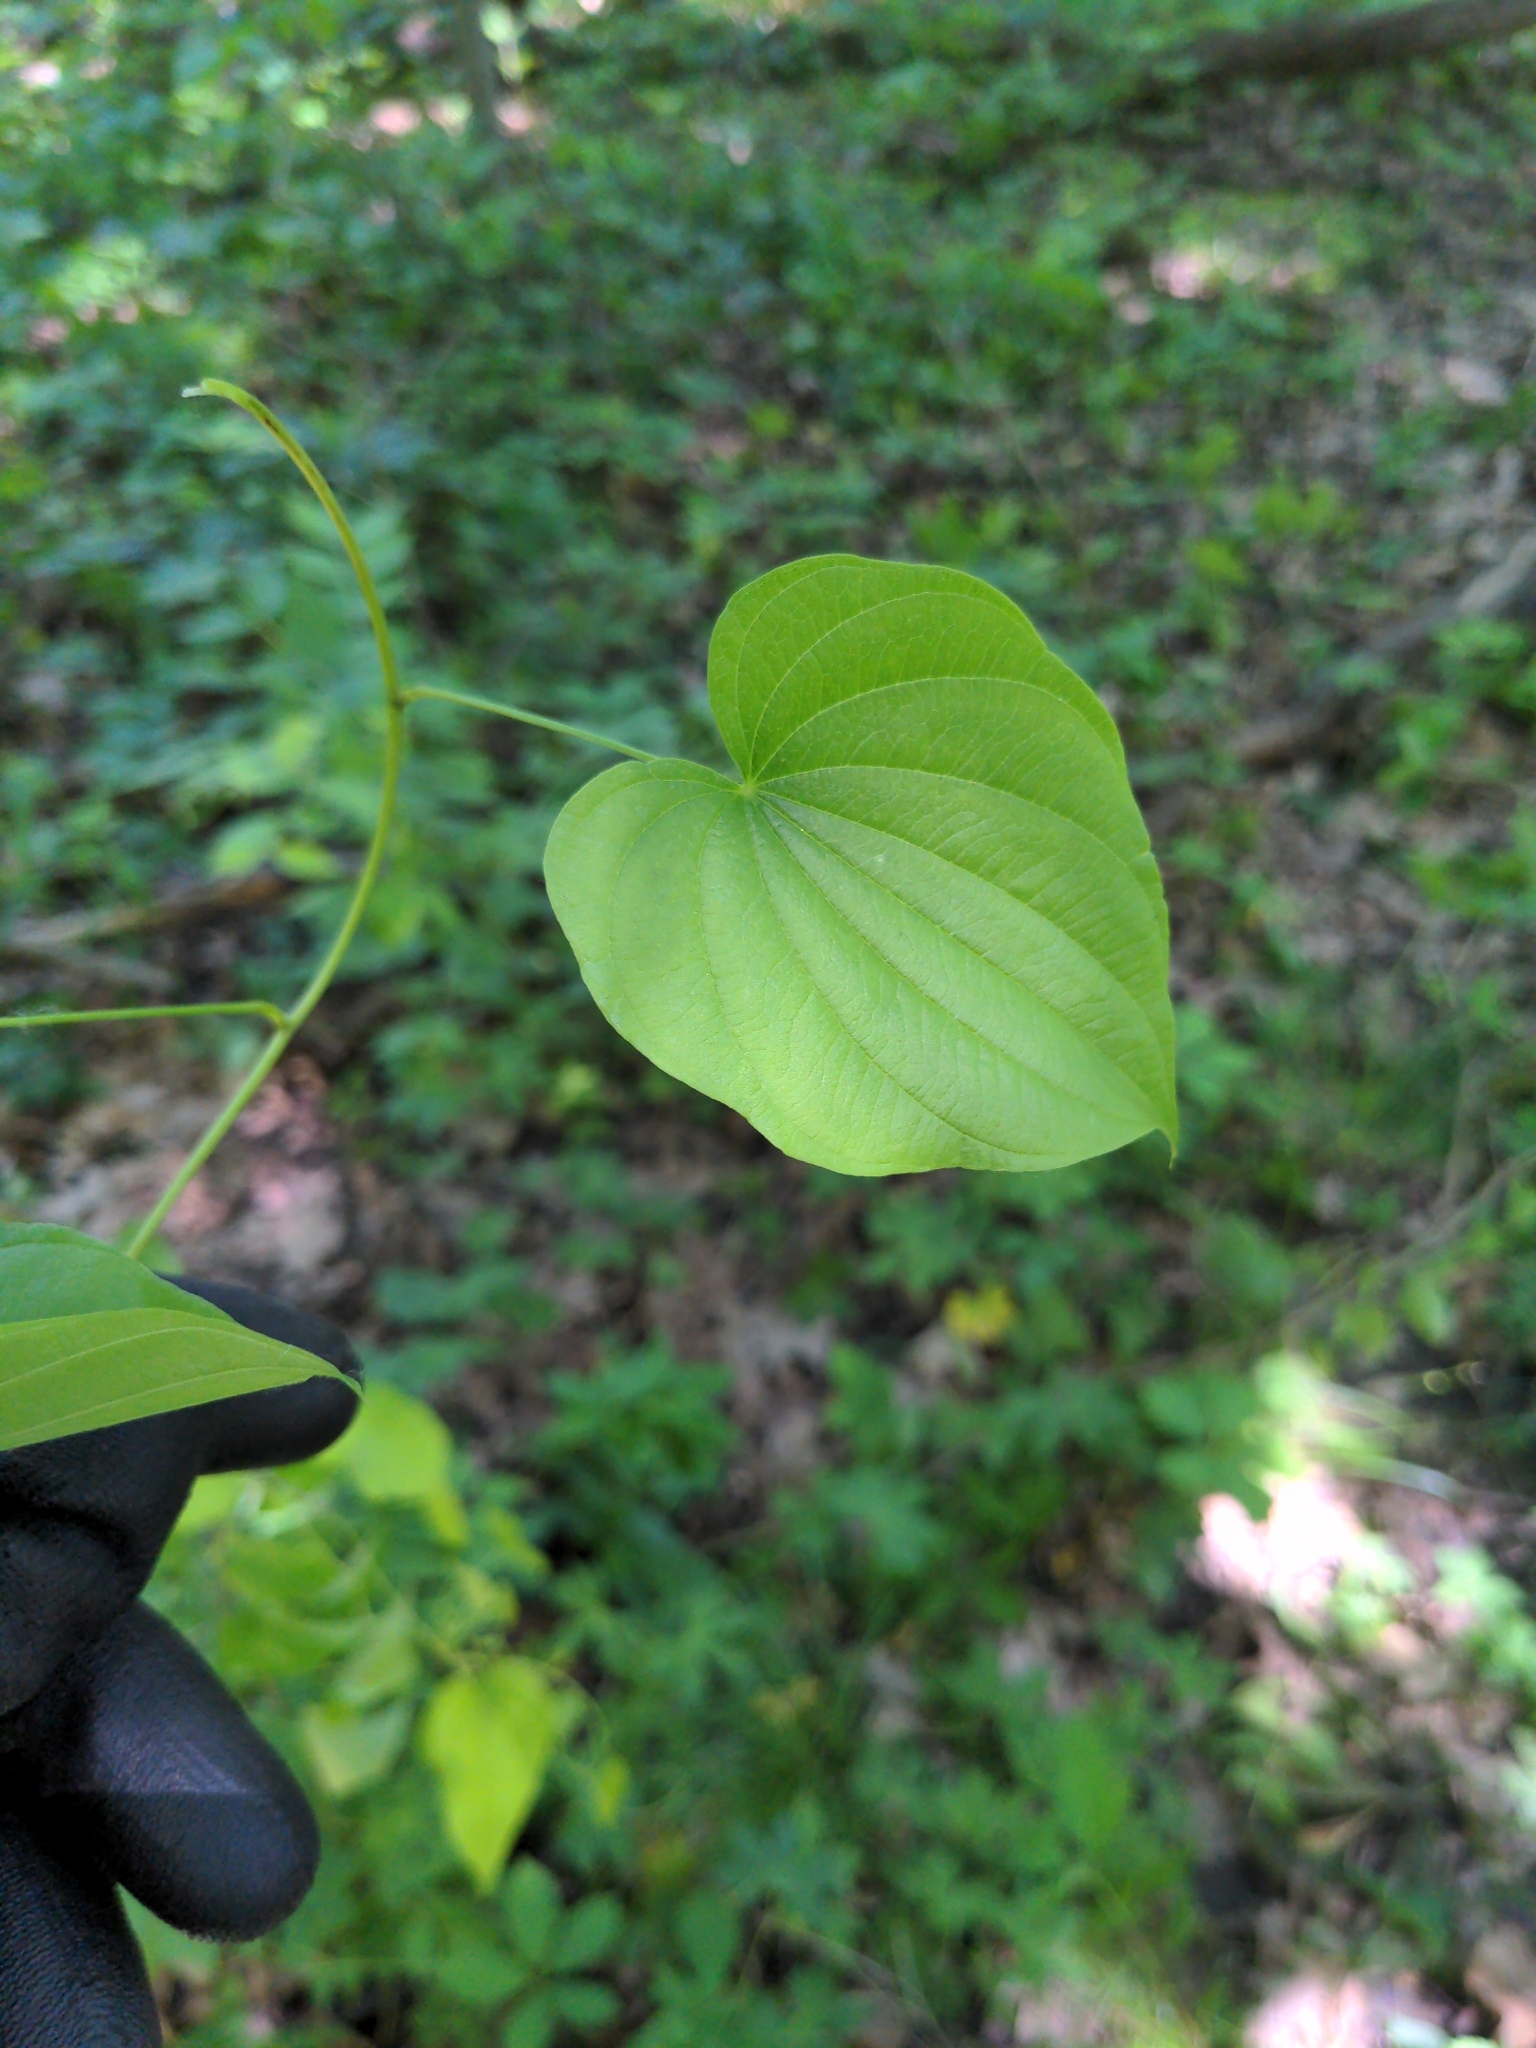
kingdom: Plantae
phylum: Tracheophyta
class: Liliopsida
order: Dioscoreales
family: Dioscoreaceae
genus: Dioscorea
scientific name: Dioscorea villosa
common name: Wild yam
